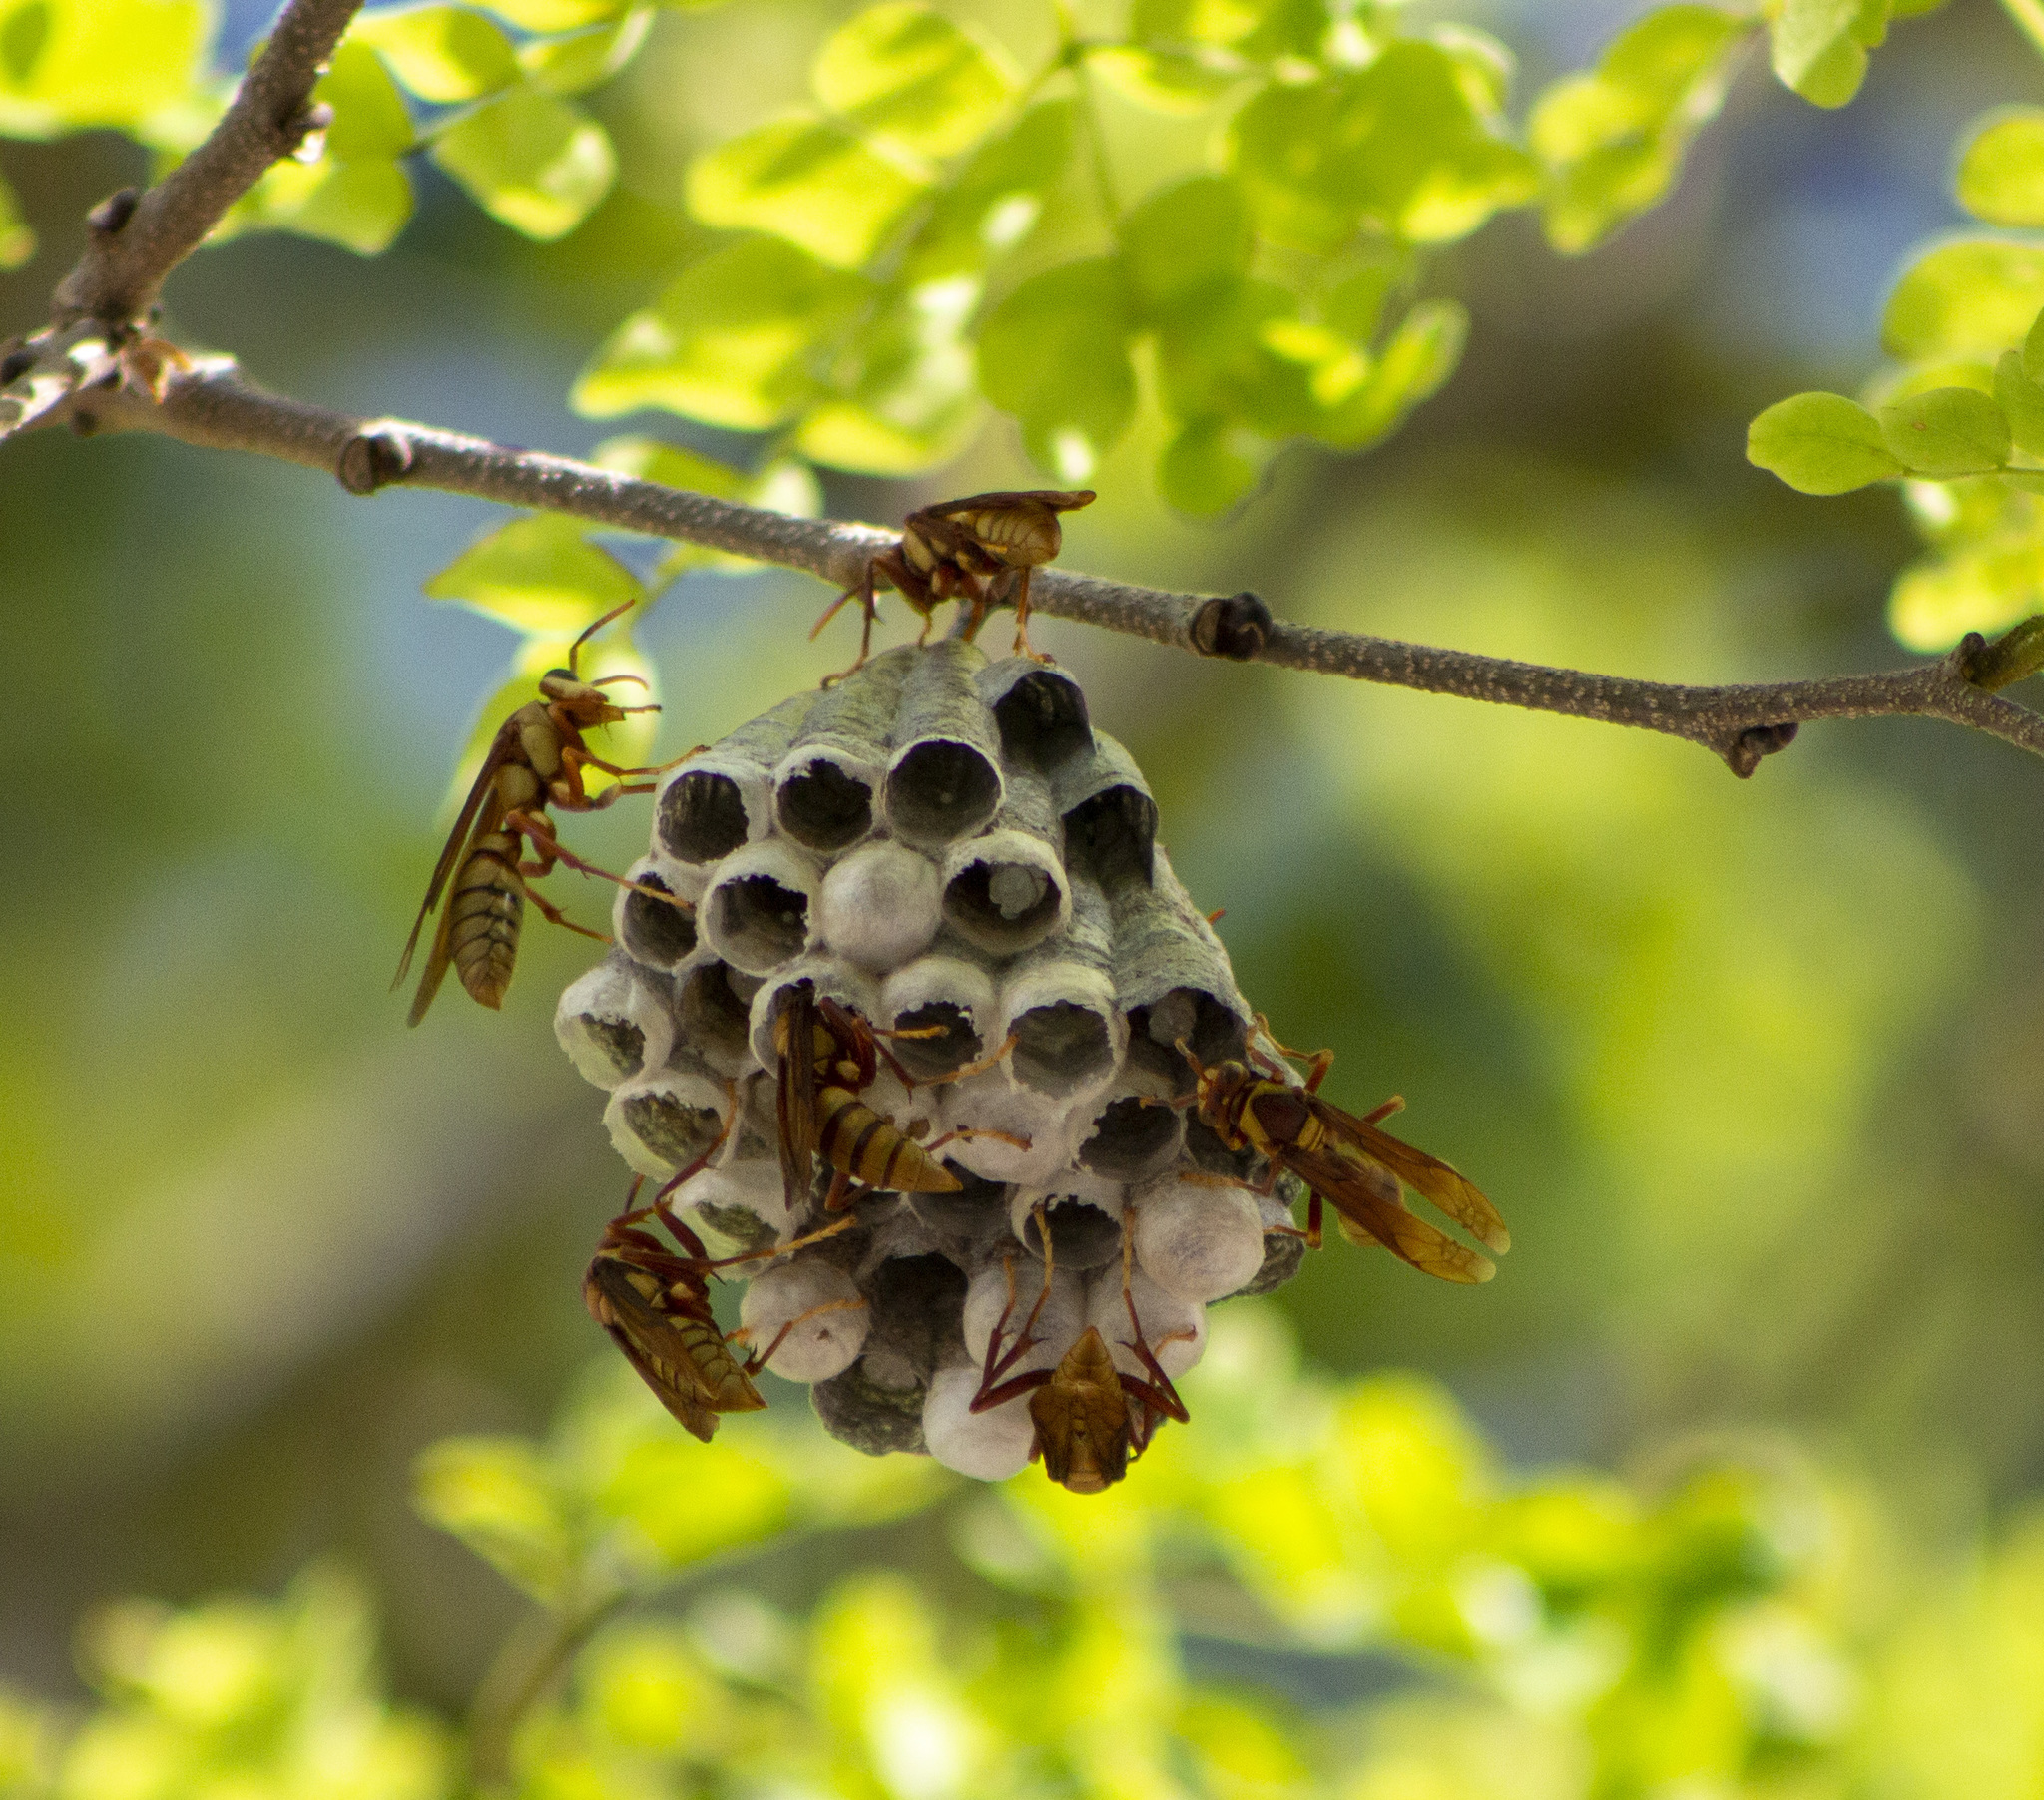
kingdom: Animalia
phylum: Arthropoda
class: Insecta
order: Hymenoptera
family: Eumenidae
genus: Polistes
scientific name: Polistes carnifex
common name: Paper wasp
